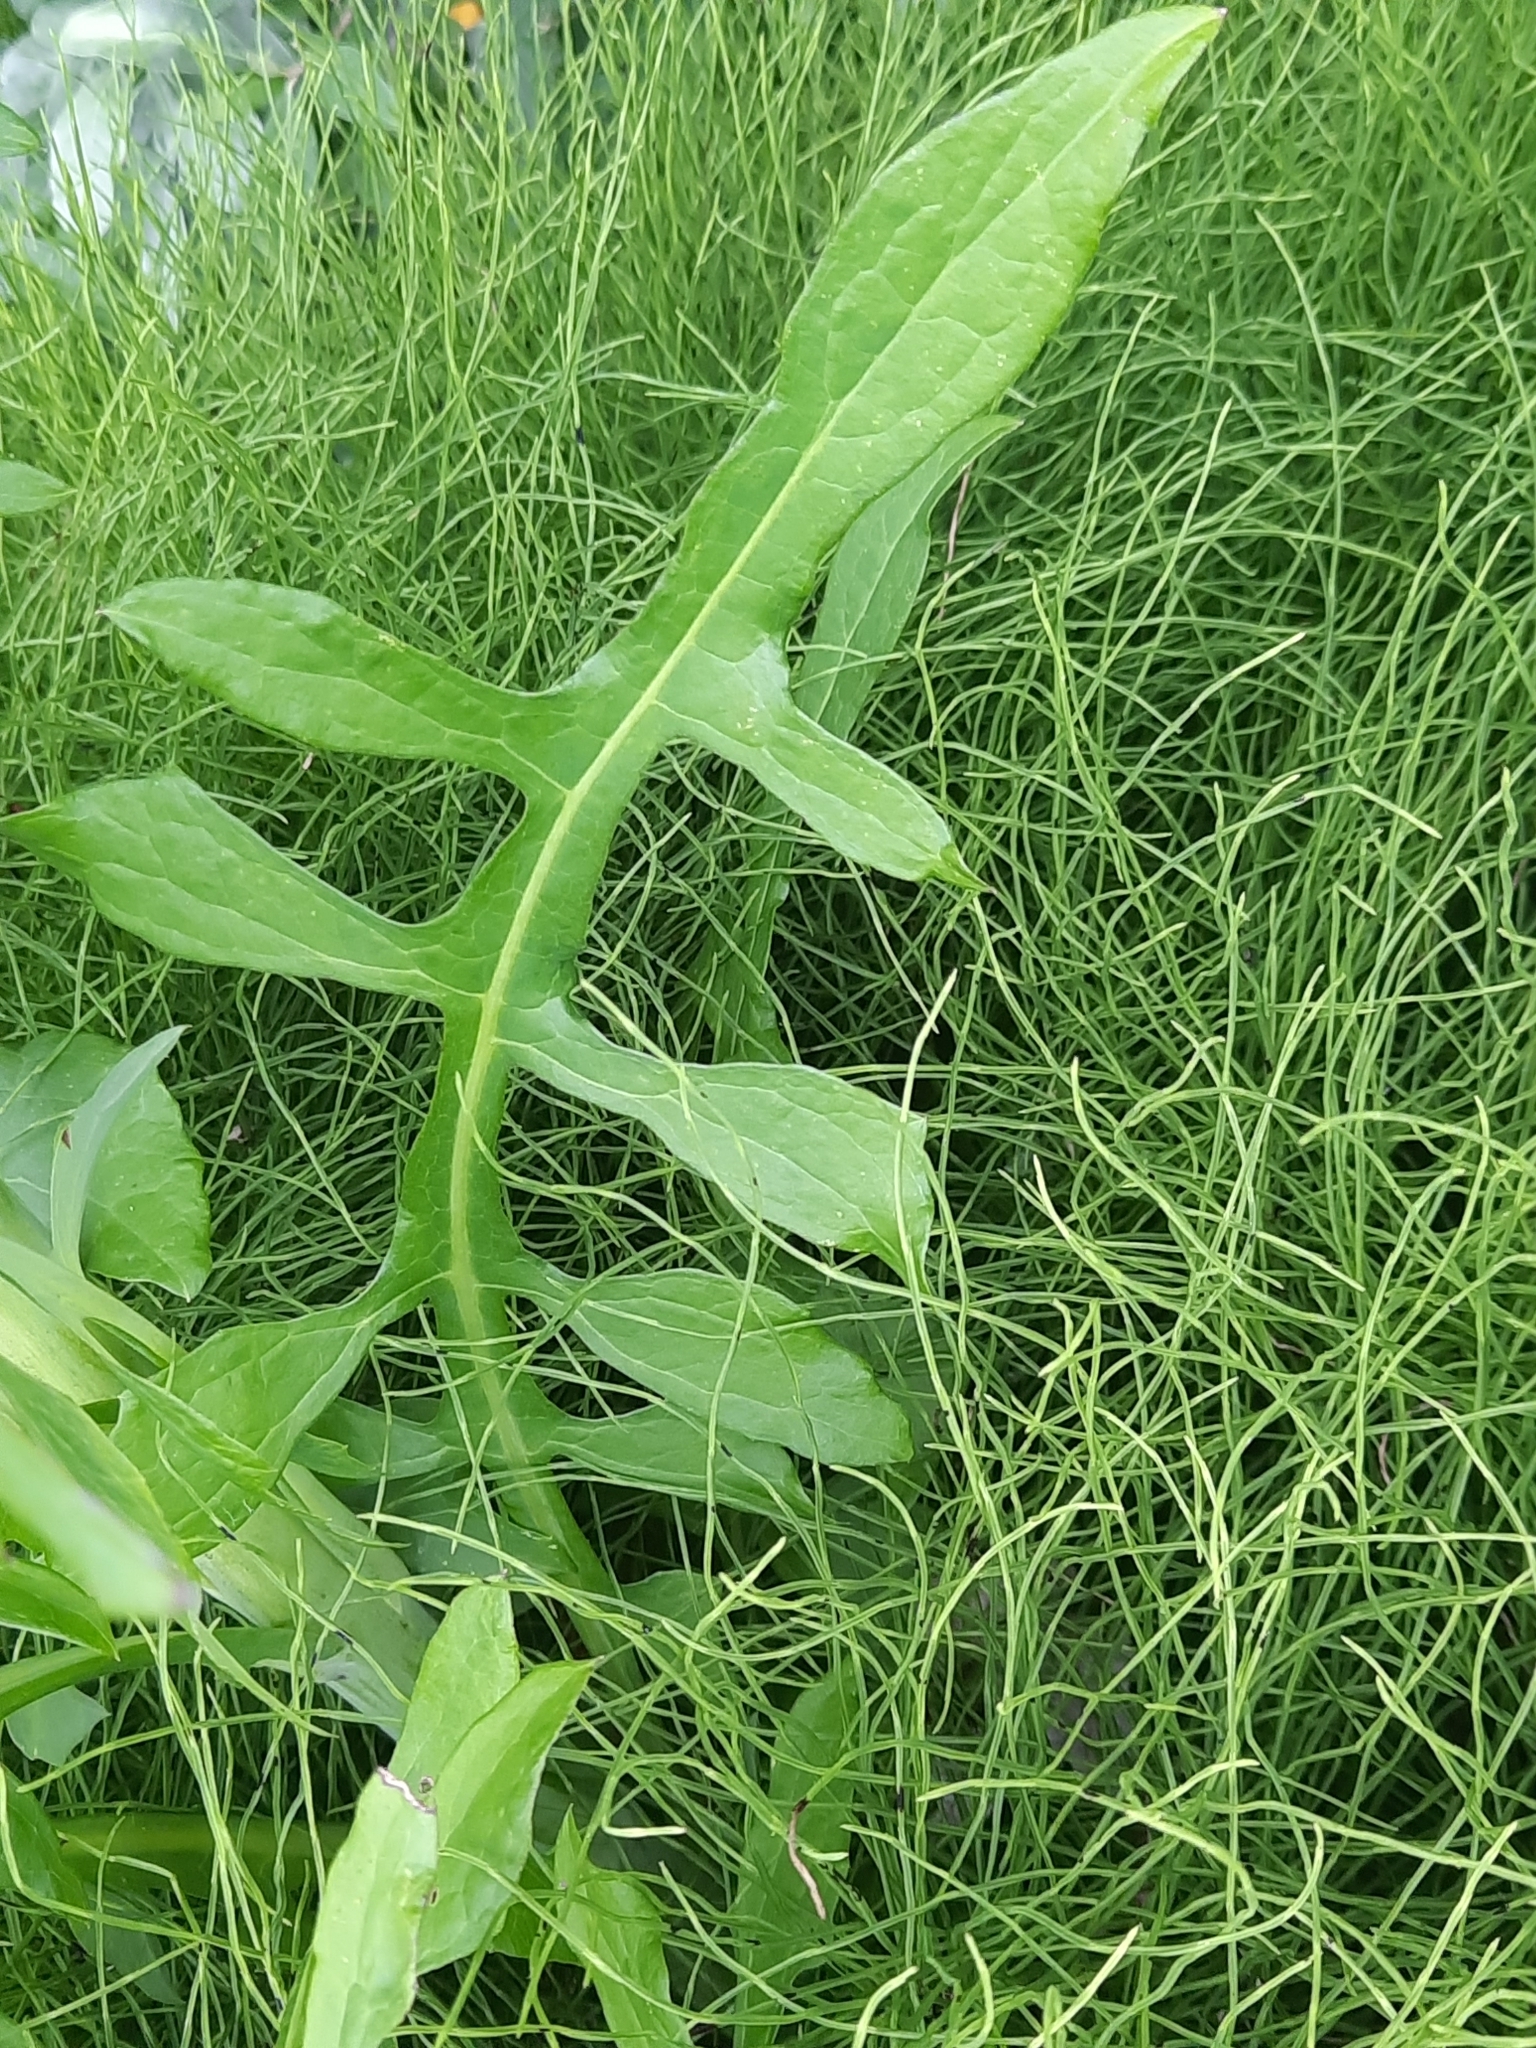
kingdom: Plantae
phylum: Tracheophyta
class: Magnoliopsida
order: Asterales
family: Asteraceae
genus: Lactuca
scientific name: Lactuca canadensis
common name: Canada lettuce
